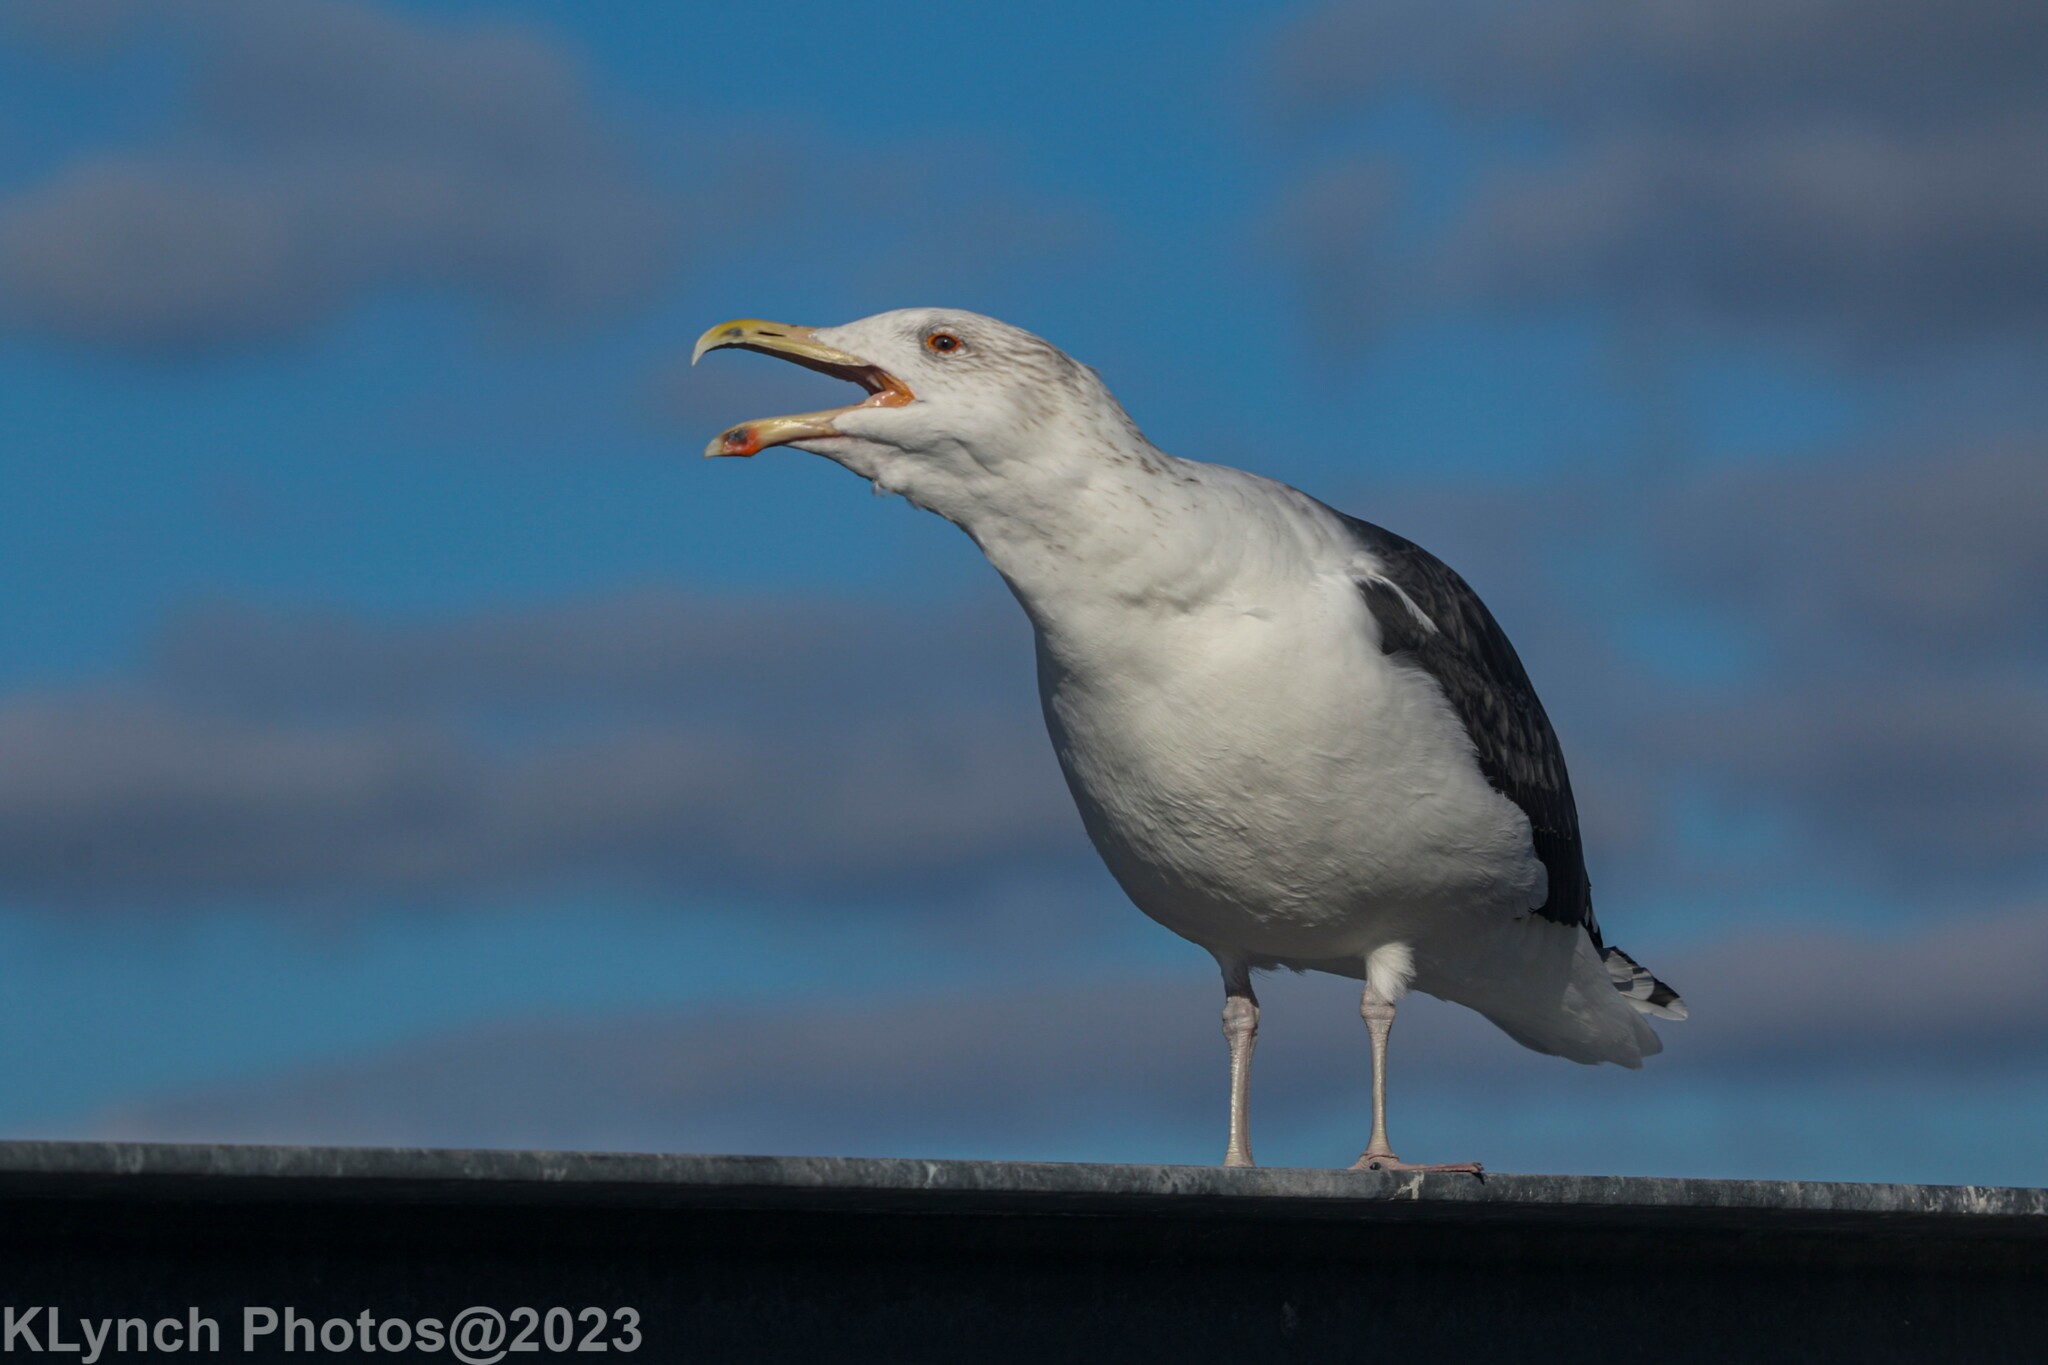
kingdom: Animalia
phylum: Chordata
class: Aves
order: Charadriiformes
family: Laridae
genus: Larus
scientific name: Larus marinus
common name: Great black-backed gull
